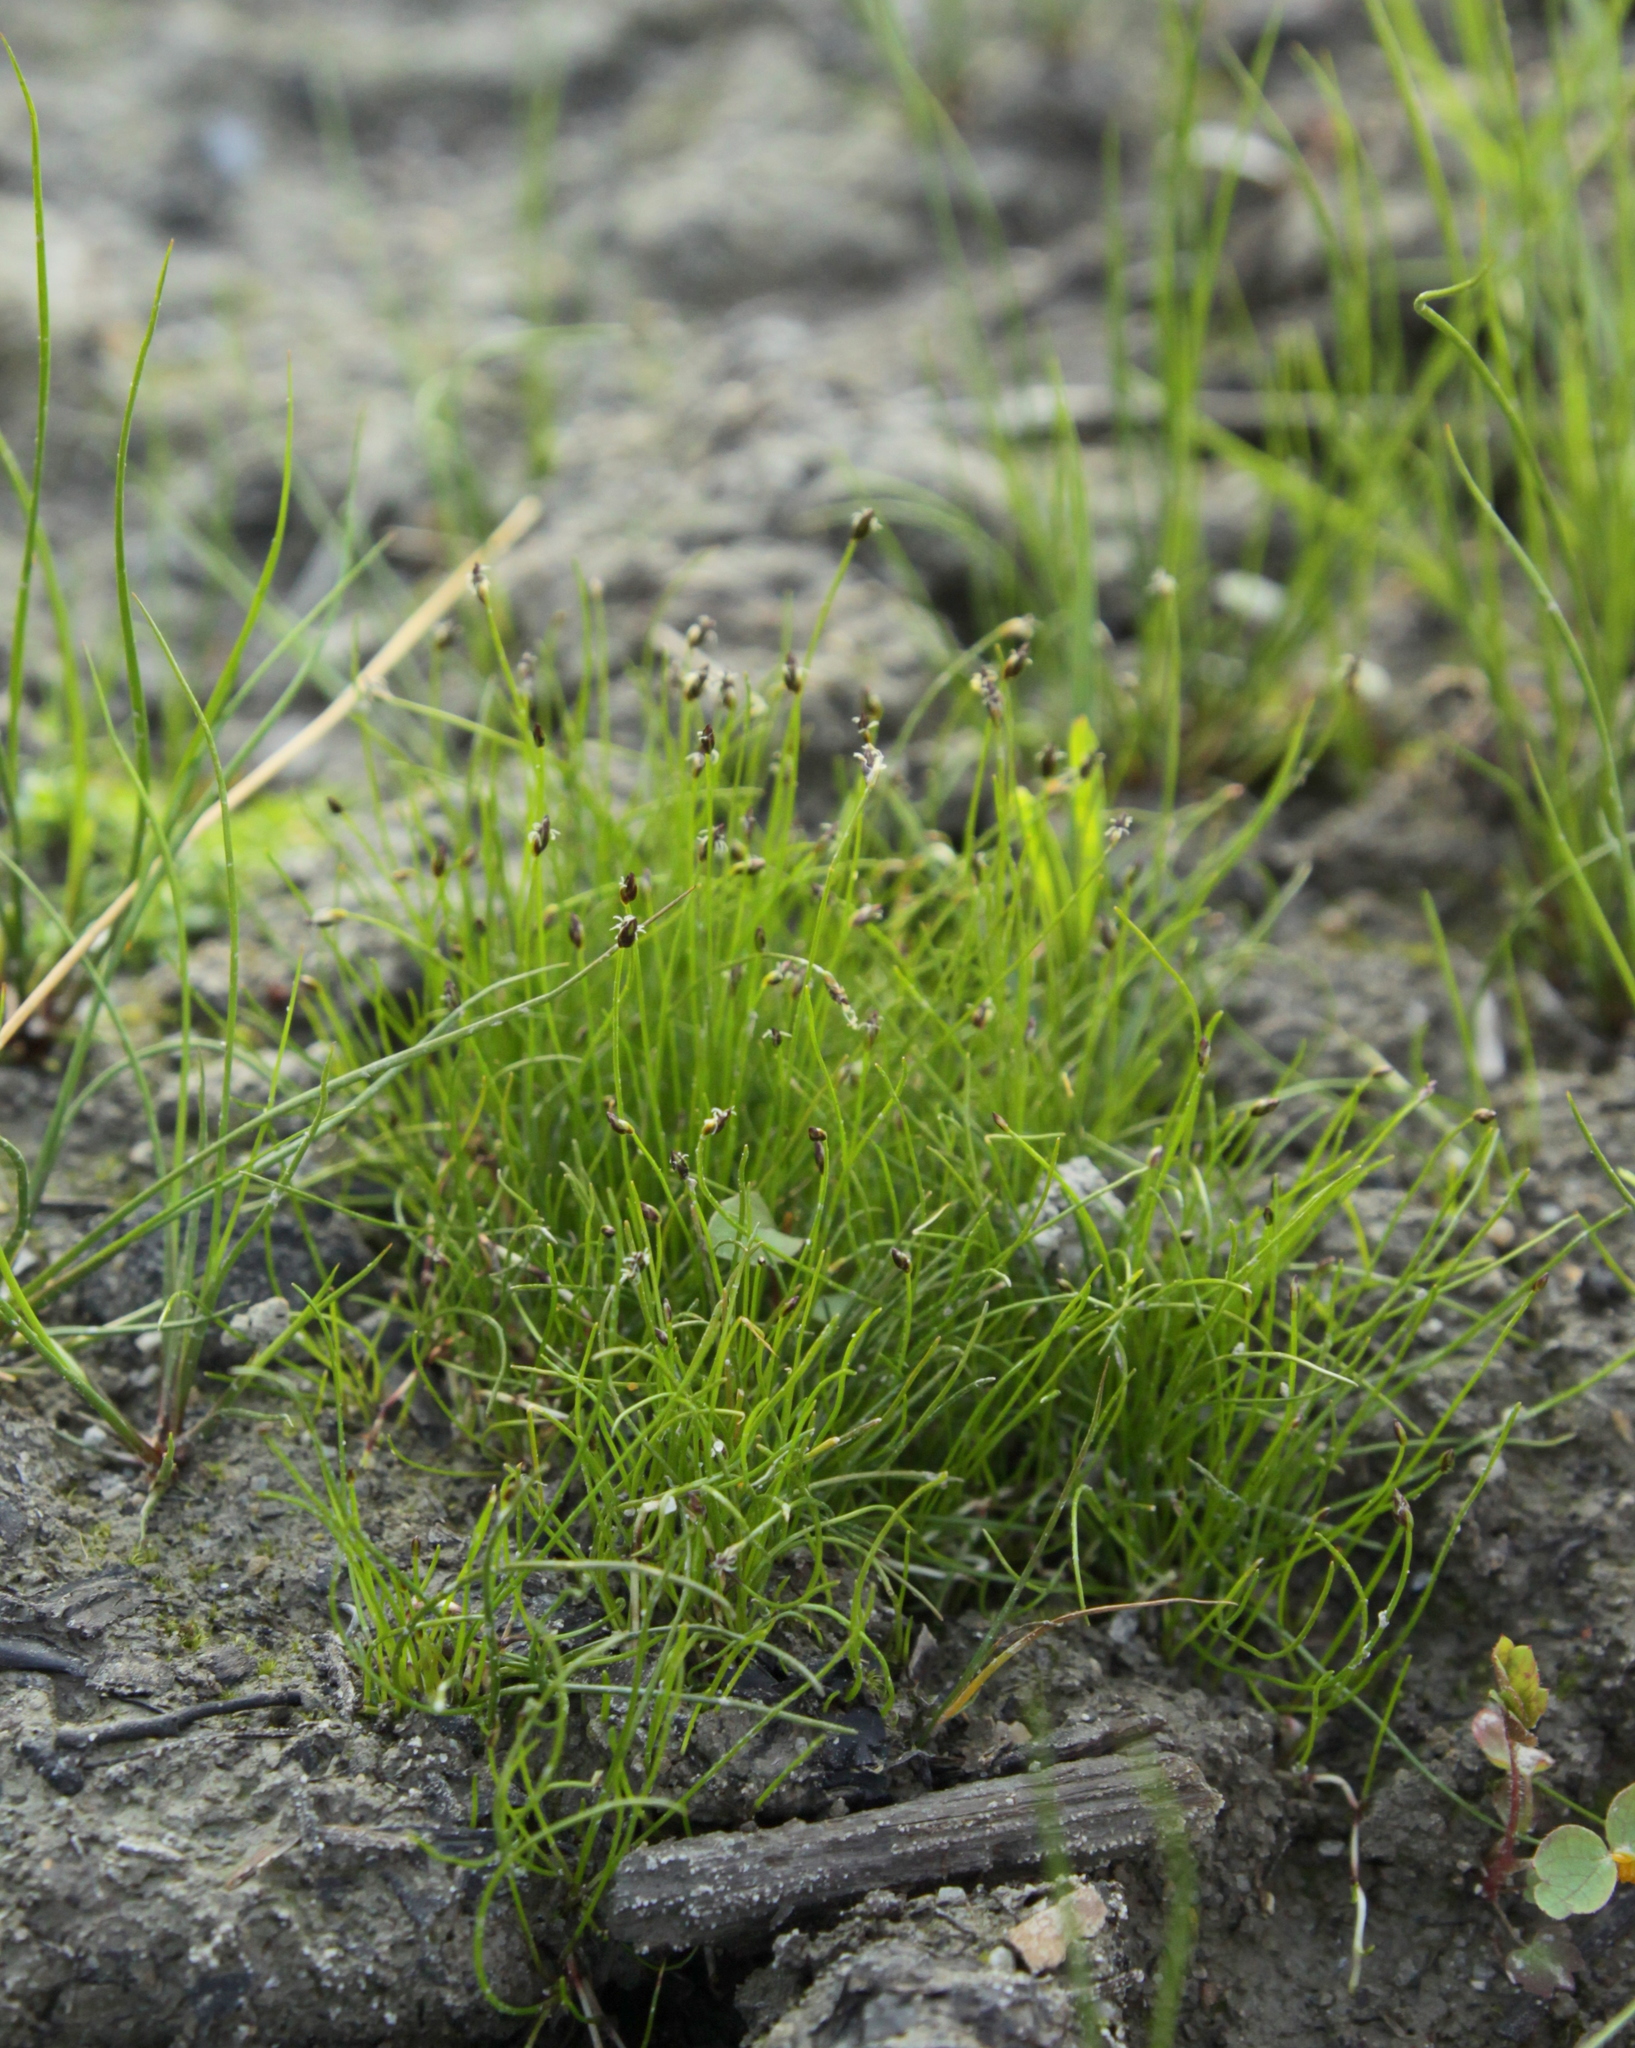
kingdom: Plantae
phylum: Tracheophyta
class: Liliopsida
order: Poales
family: Cyperaceae
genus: Eleocharis
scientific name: Eleocharis acicularis
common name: Needle spike-rush
